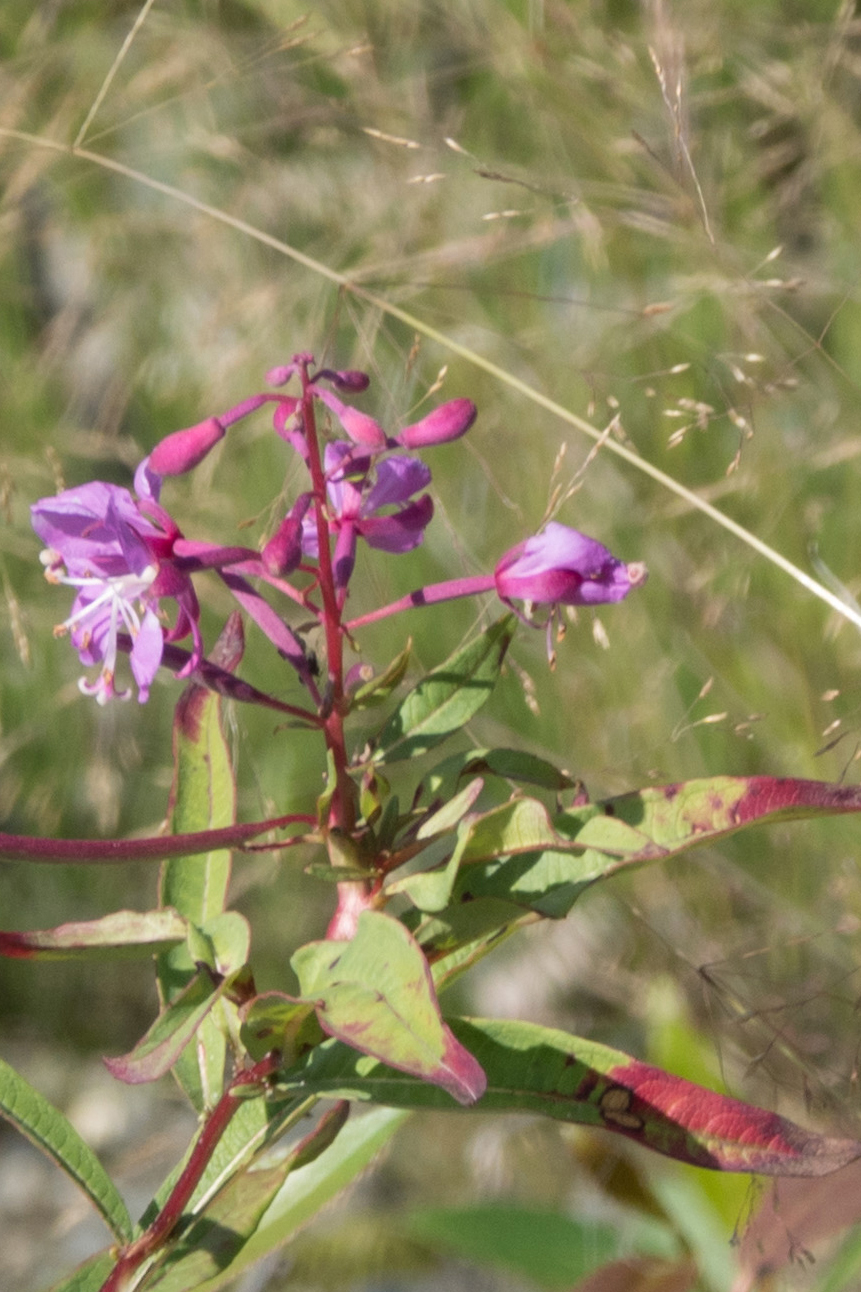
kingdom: Plantae
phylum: Tracheophyta
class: Magnoliopsida
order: Myrtales
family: Onagraceae
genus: Chamaenerion
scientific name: Chamaenerion angustifolium
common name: Fireweed
